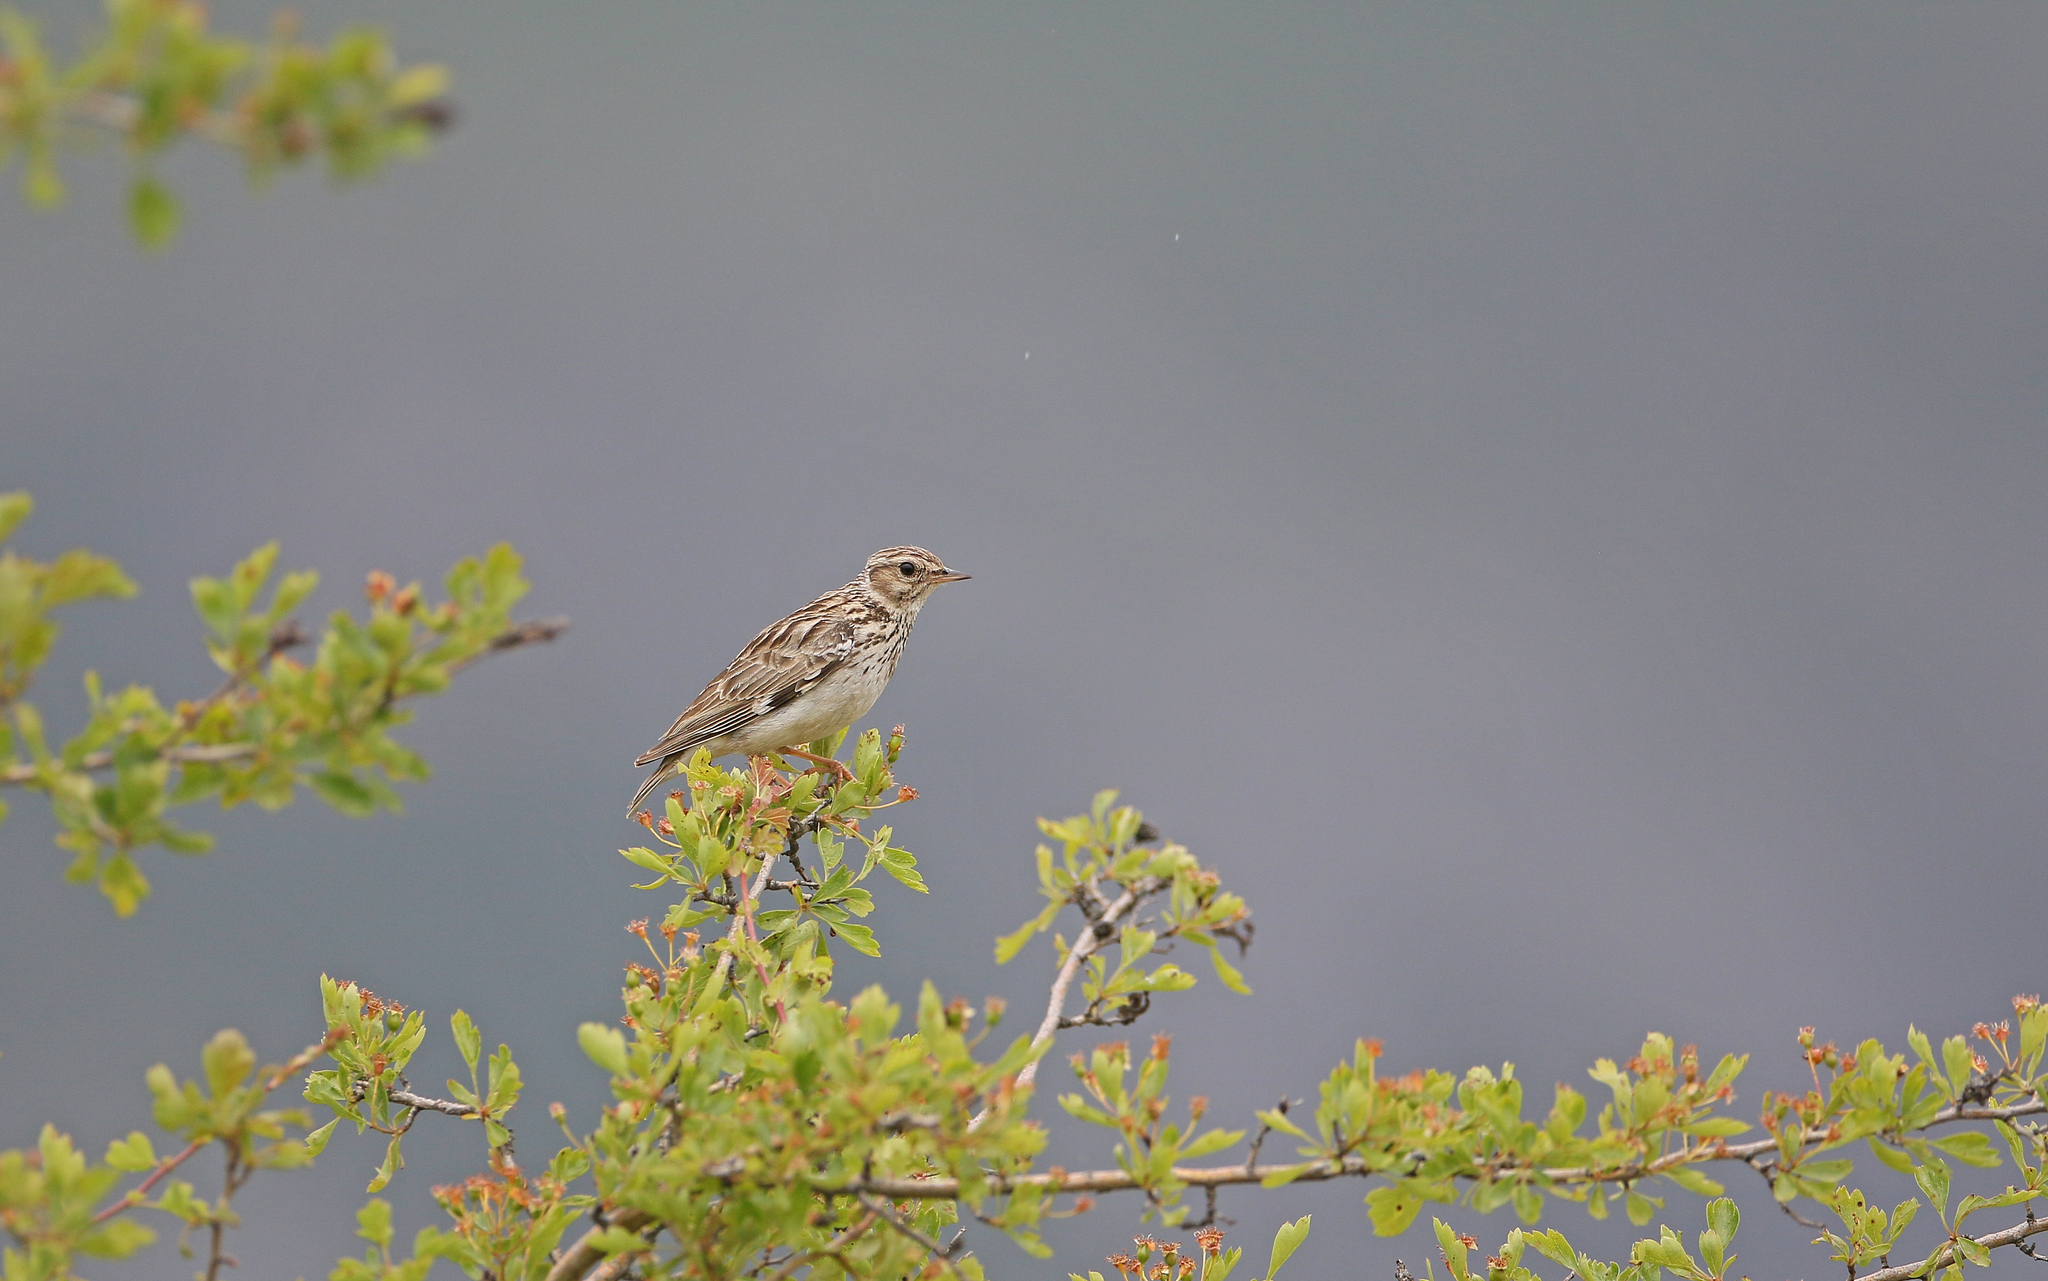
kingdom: Animalia
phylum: Chordata
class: Aves
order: Passeriformes
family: Alaudidae
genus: Lullula
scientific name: Lullula arborea
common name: Woodlark
